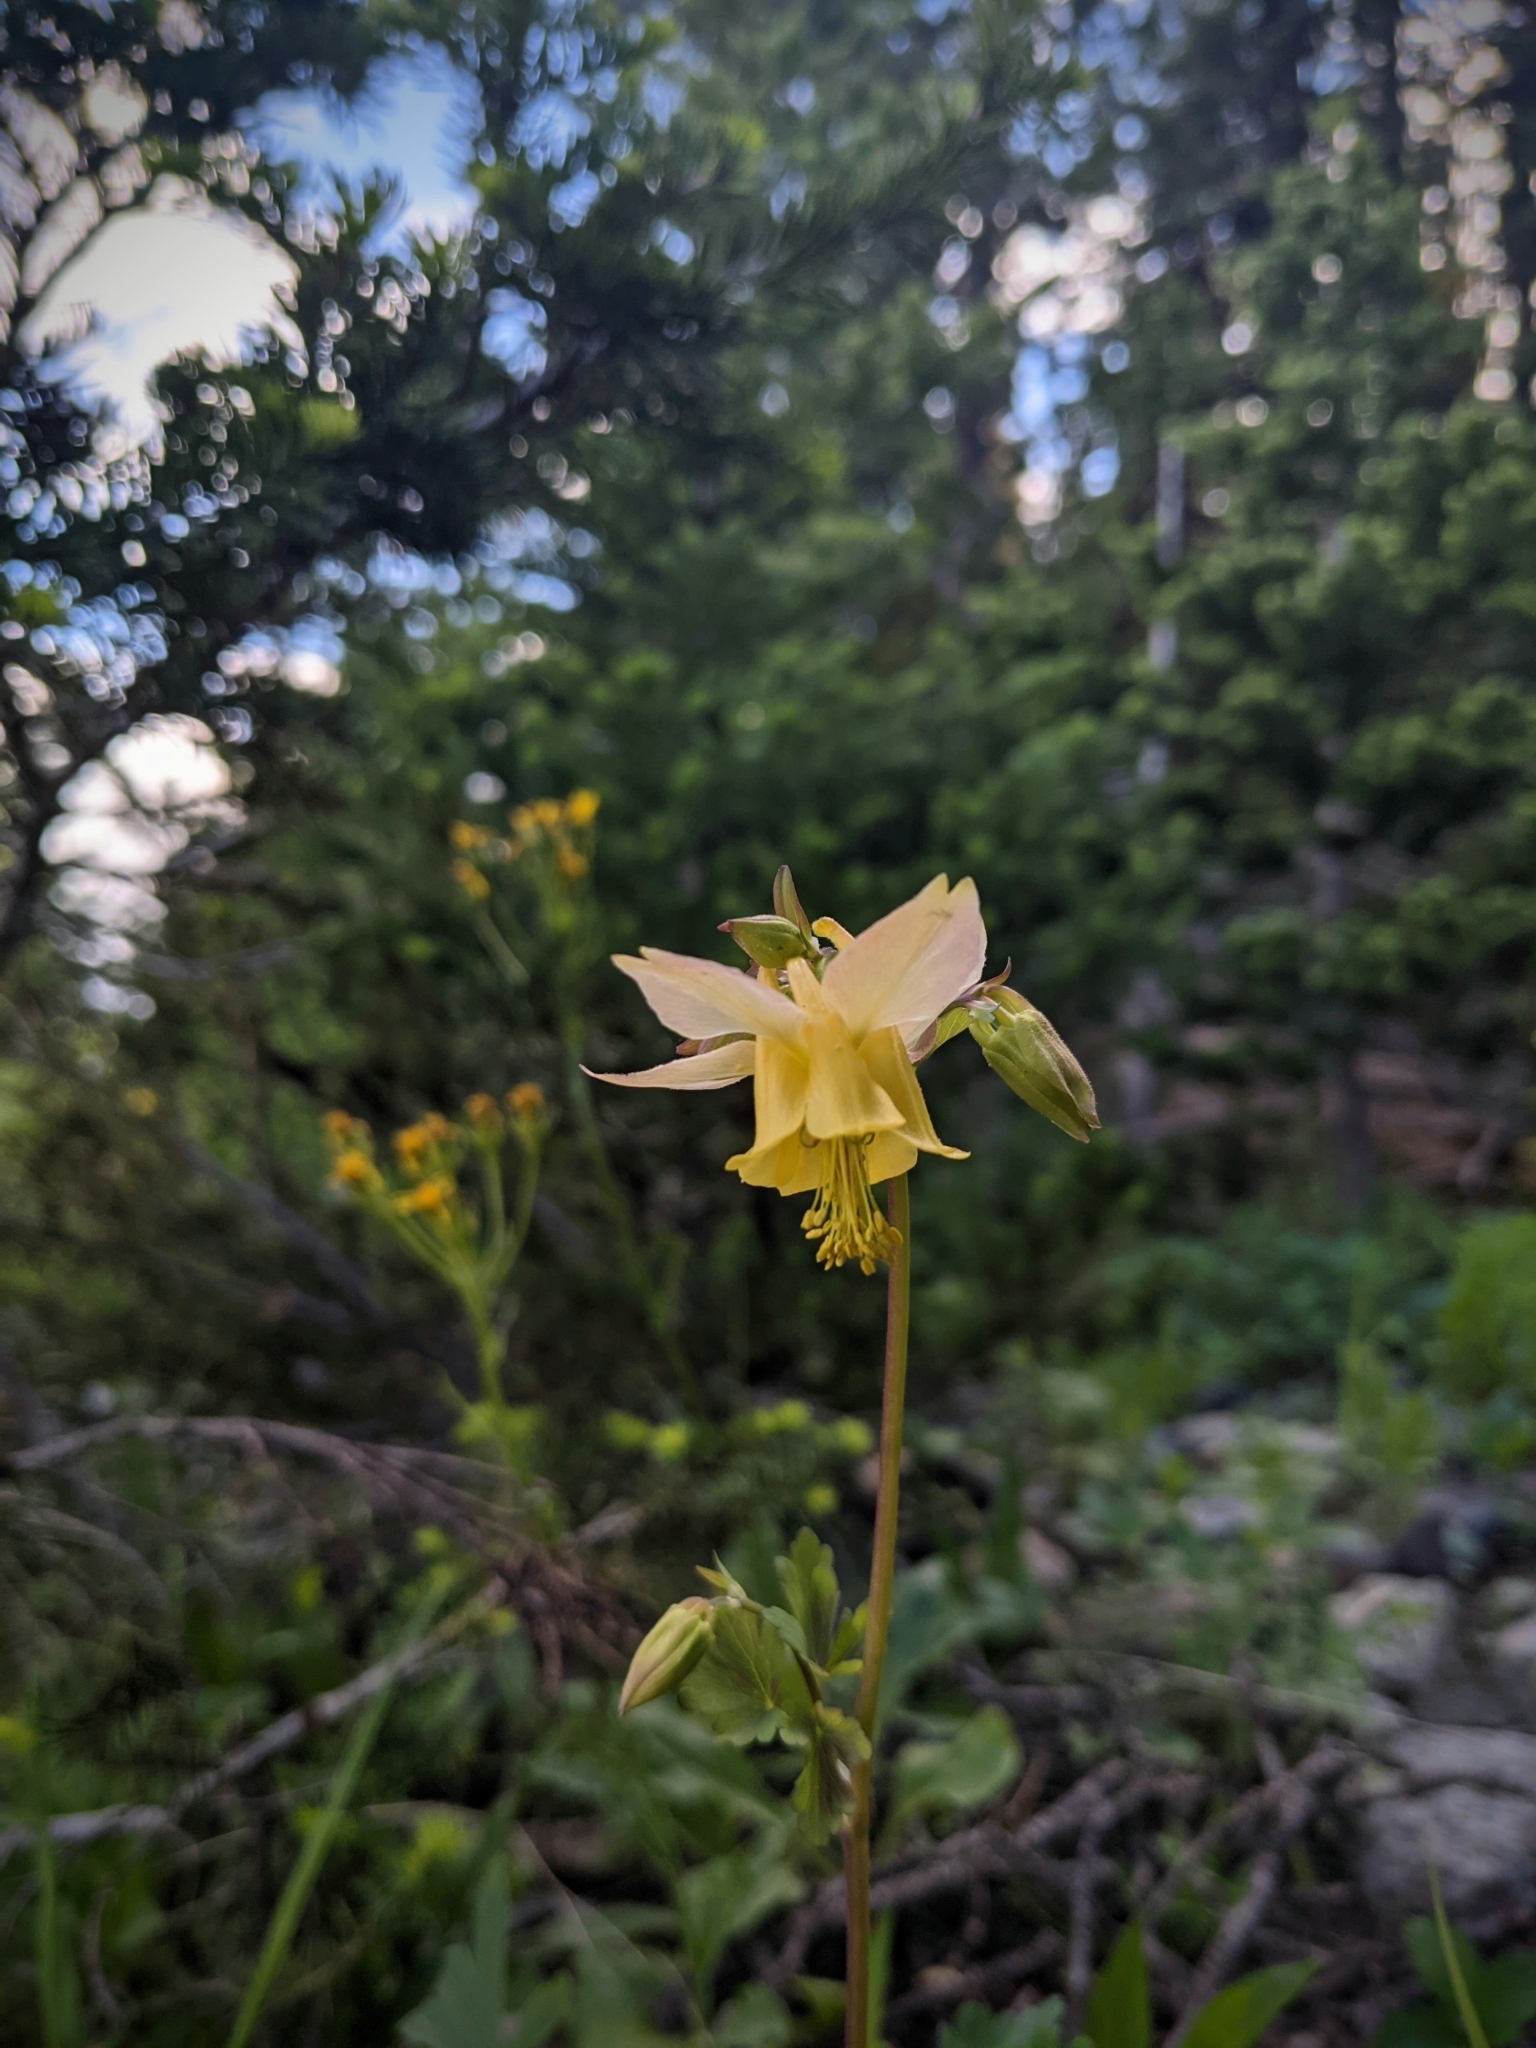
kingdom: Plantae
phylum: Tracheophyta
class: Magnoliopsida
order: Ranunculales
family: Ranunculaceae
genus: Aquilegia
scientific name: Aquilegia flavescens
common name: Yellow columbine
